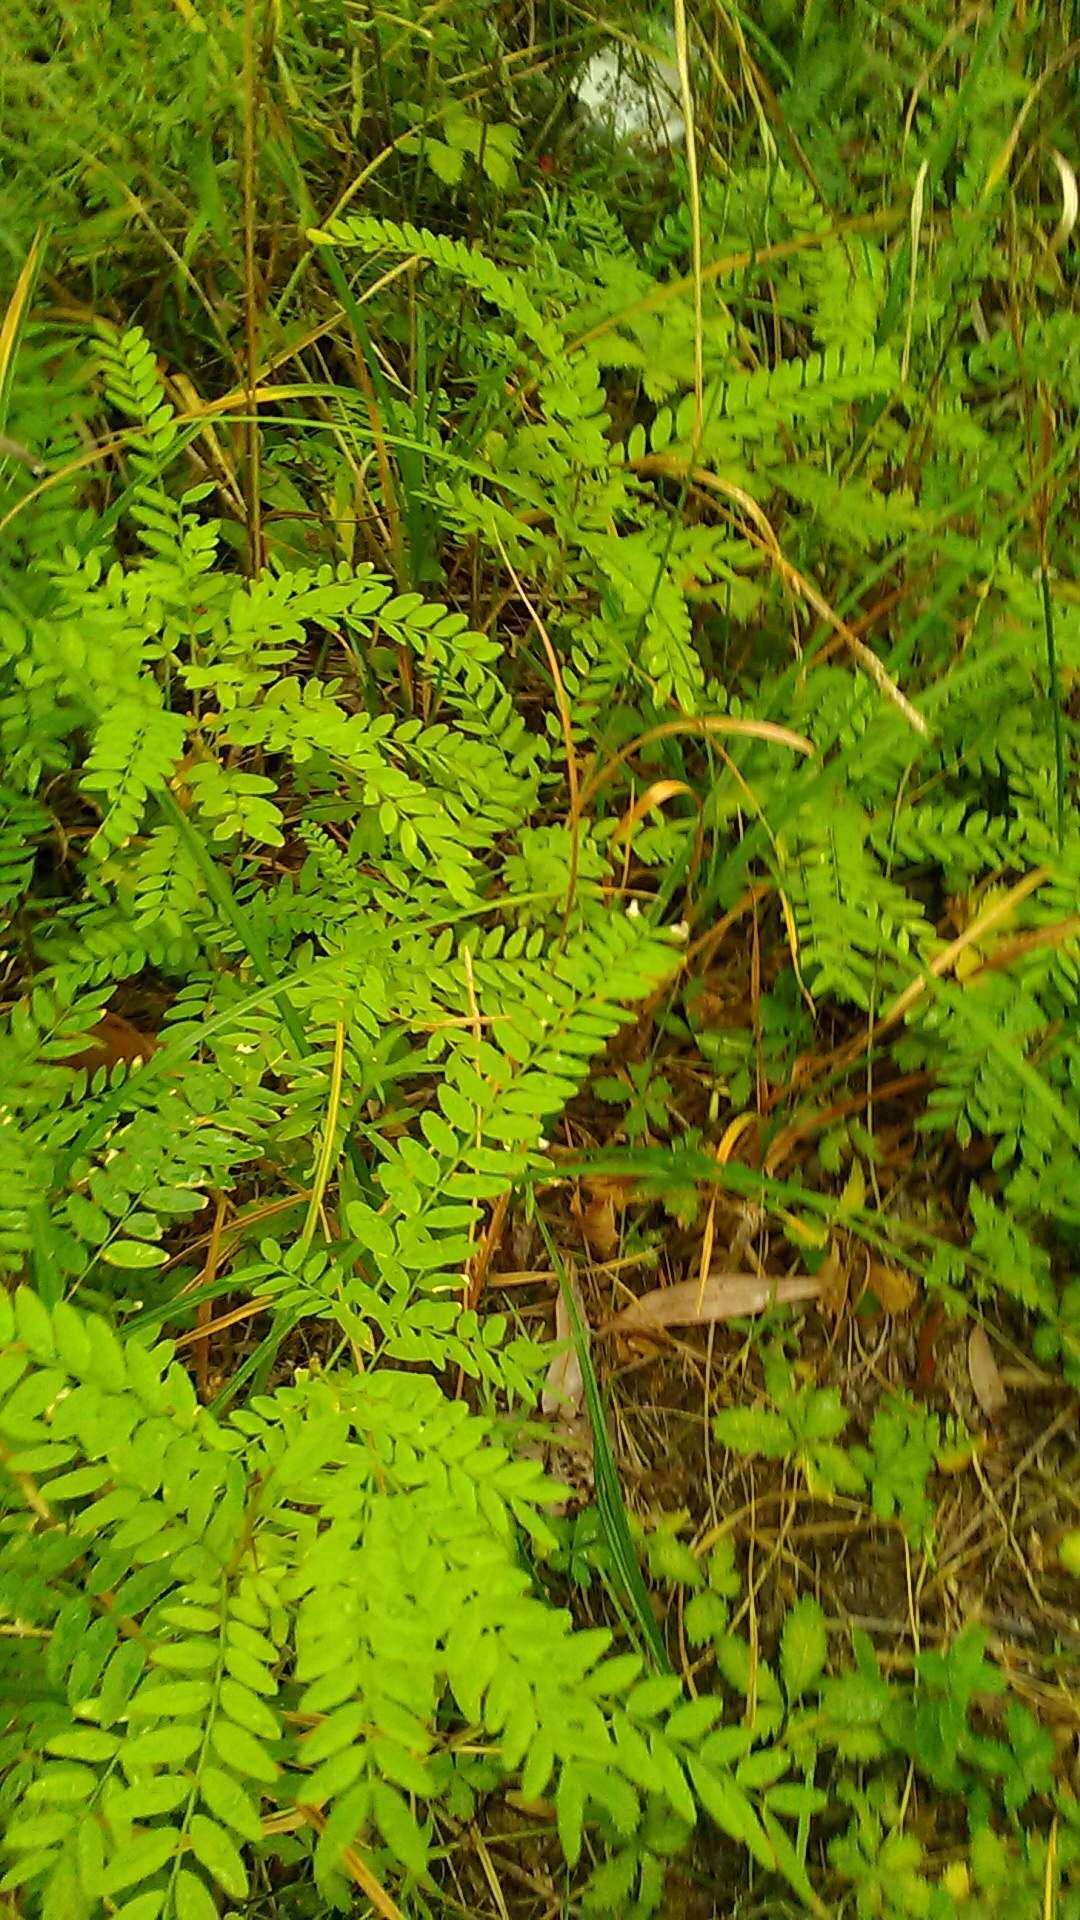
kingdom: Plantae
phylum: Tracheophyta
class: Magnoliopsida
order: Fabales
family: Fabaceae
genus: Gleditsia
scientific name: Gleditsia triacanthos
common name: Common honeylocust
